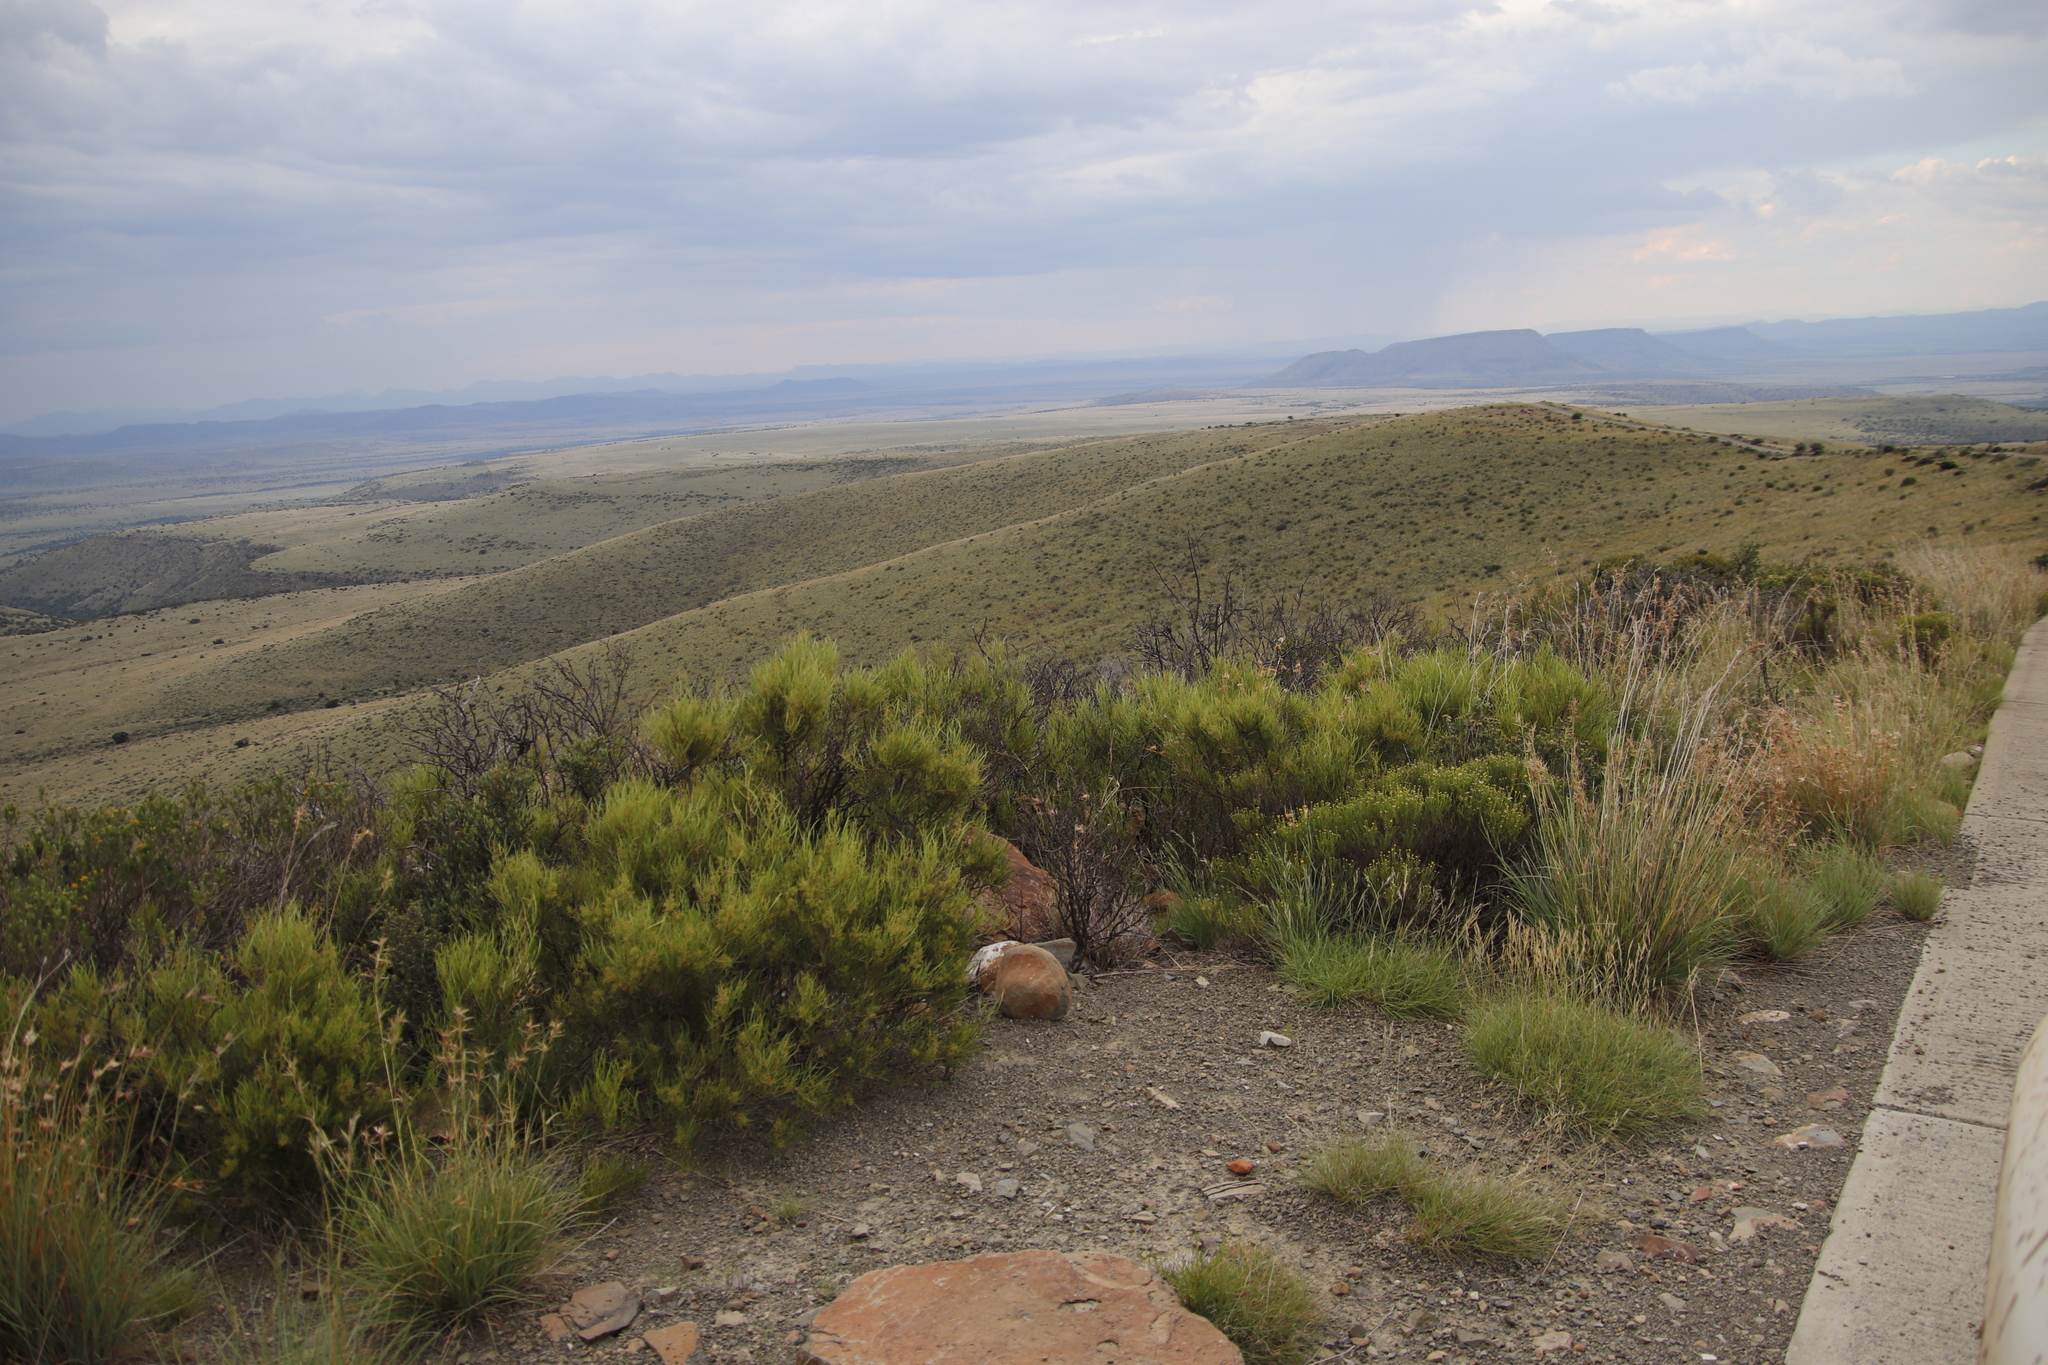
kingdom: Plantae
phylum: Tracheophyta
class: Magnoliopsida
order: Asterales
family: Asteraceae
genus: Dicerothamnus
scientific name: Dicerothamnus rhinocerotis
